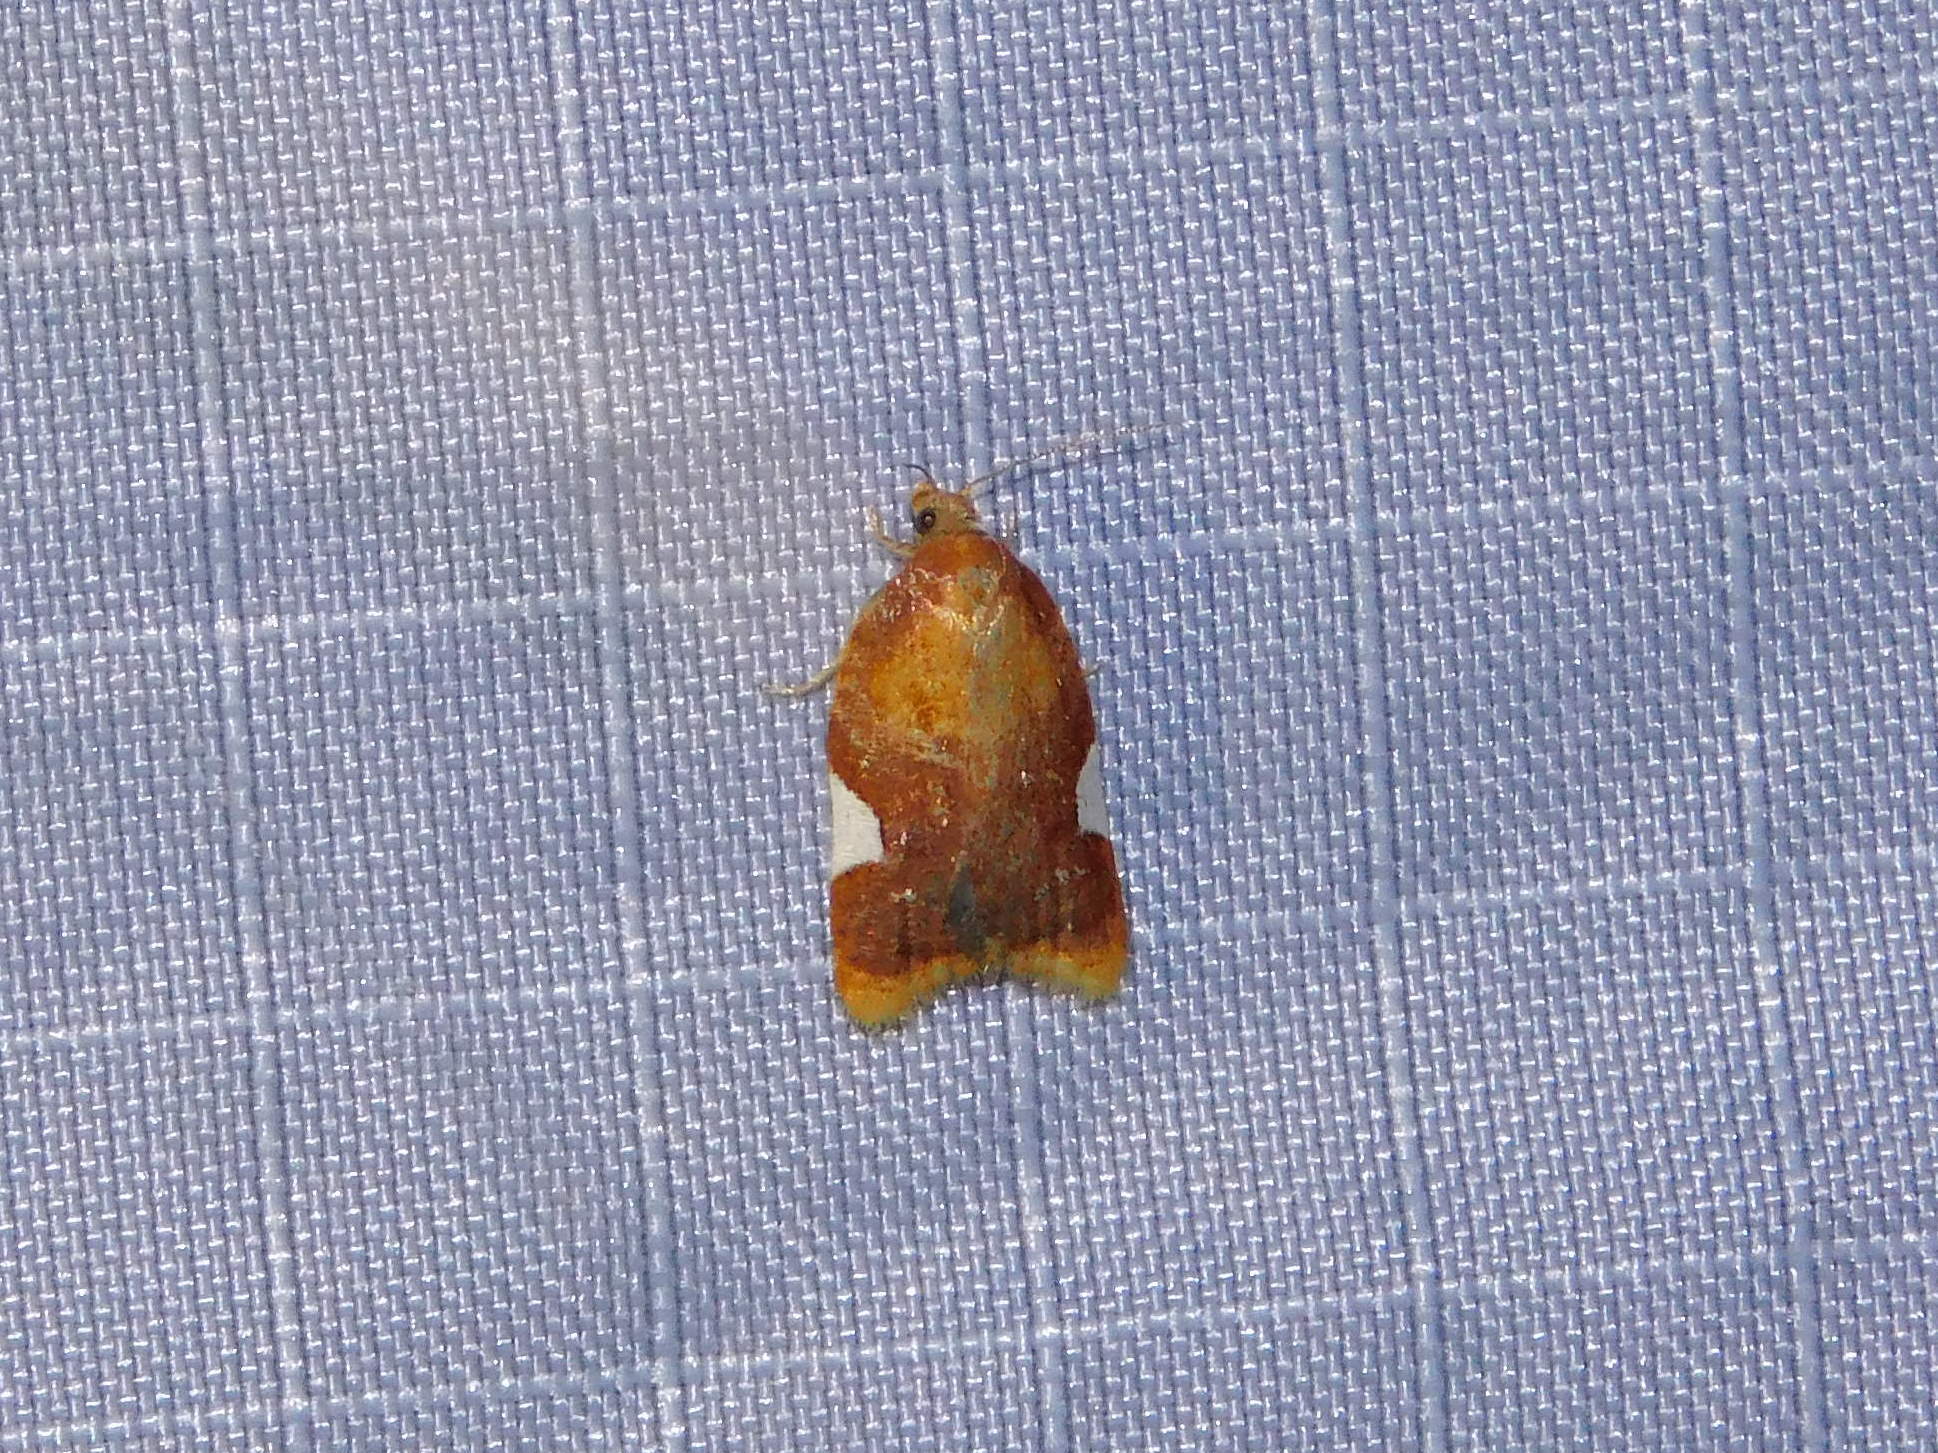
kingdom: Animalia
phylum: Arthropoda
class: Insecta
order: Lepidoptera
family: Tortricidae
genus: Acleris
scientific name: Acleris holmiana
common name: Golden leafroller moth
